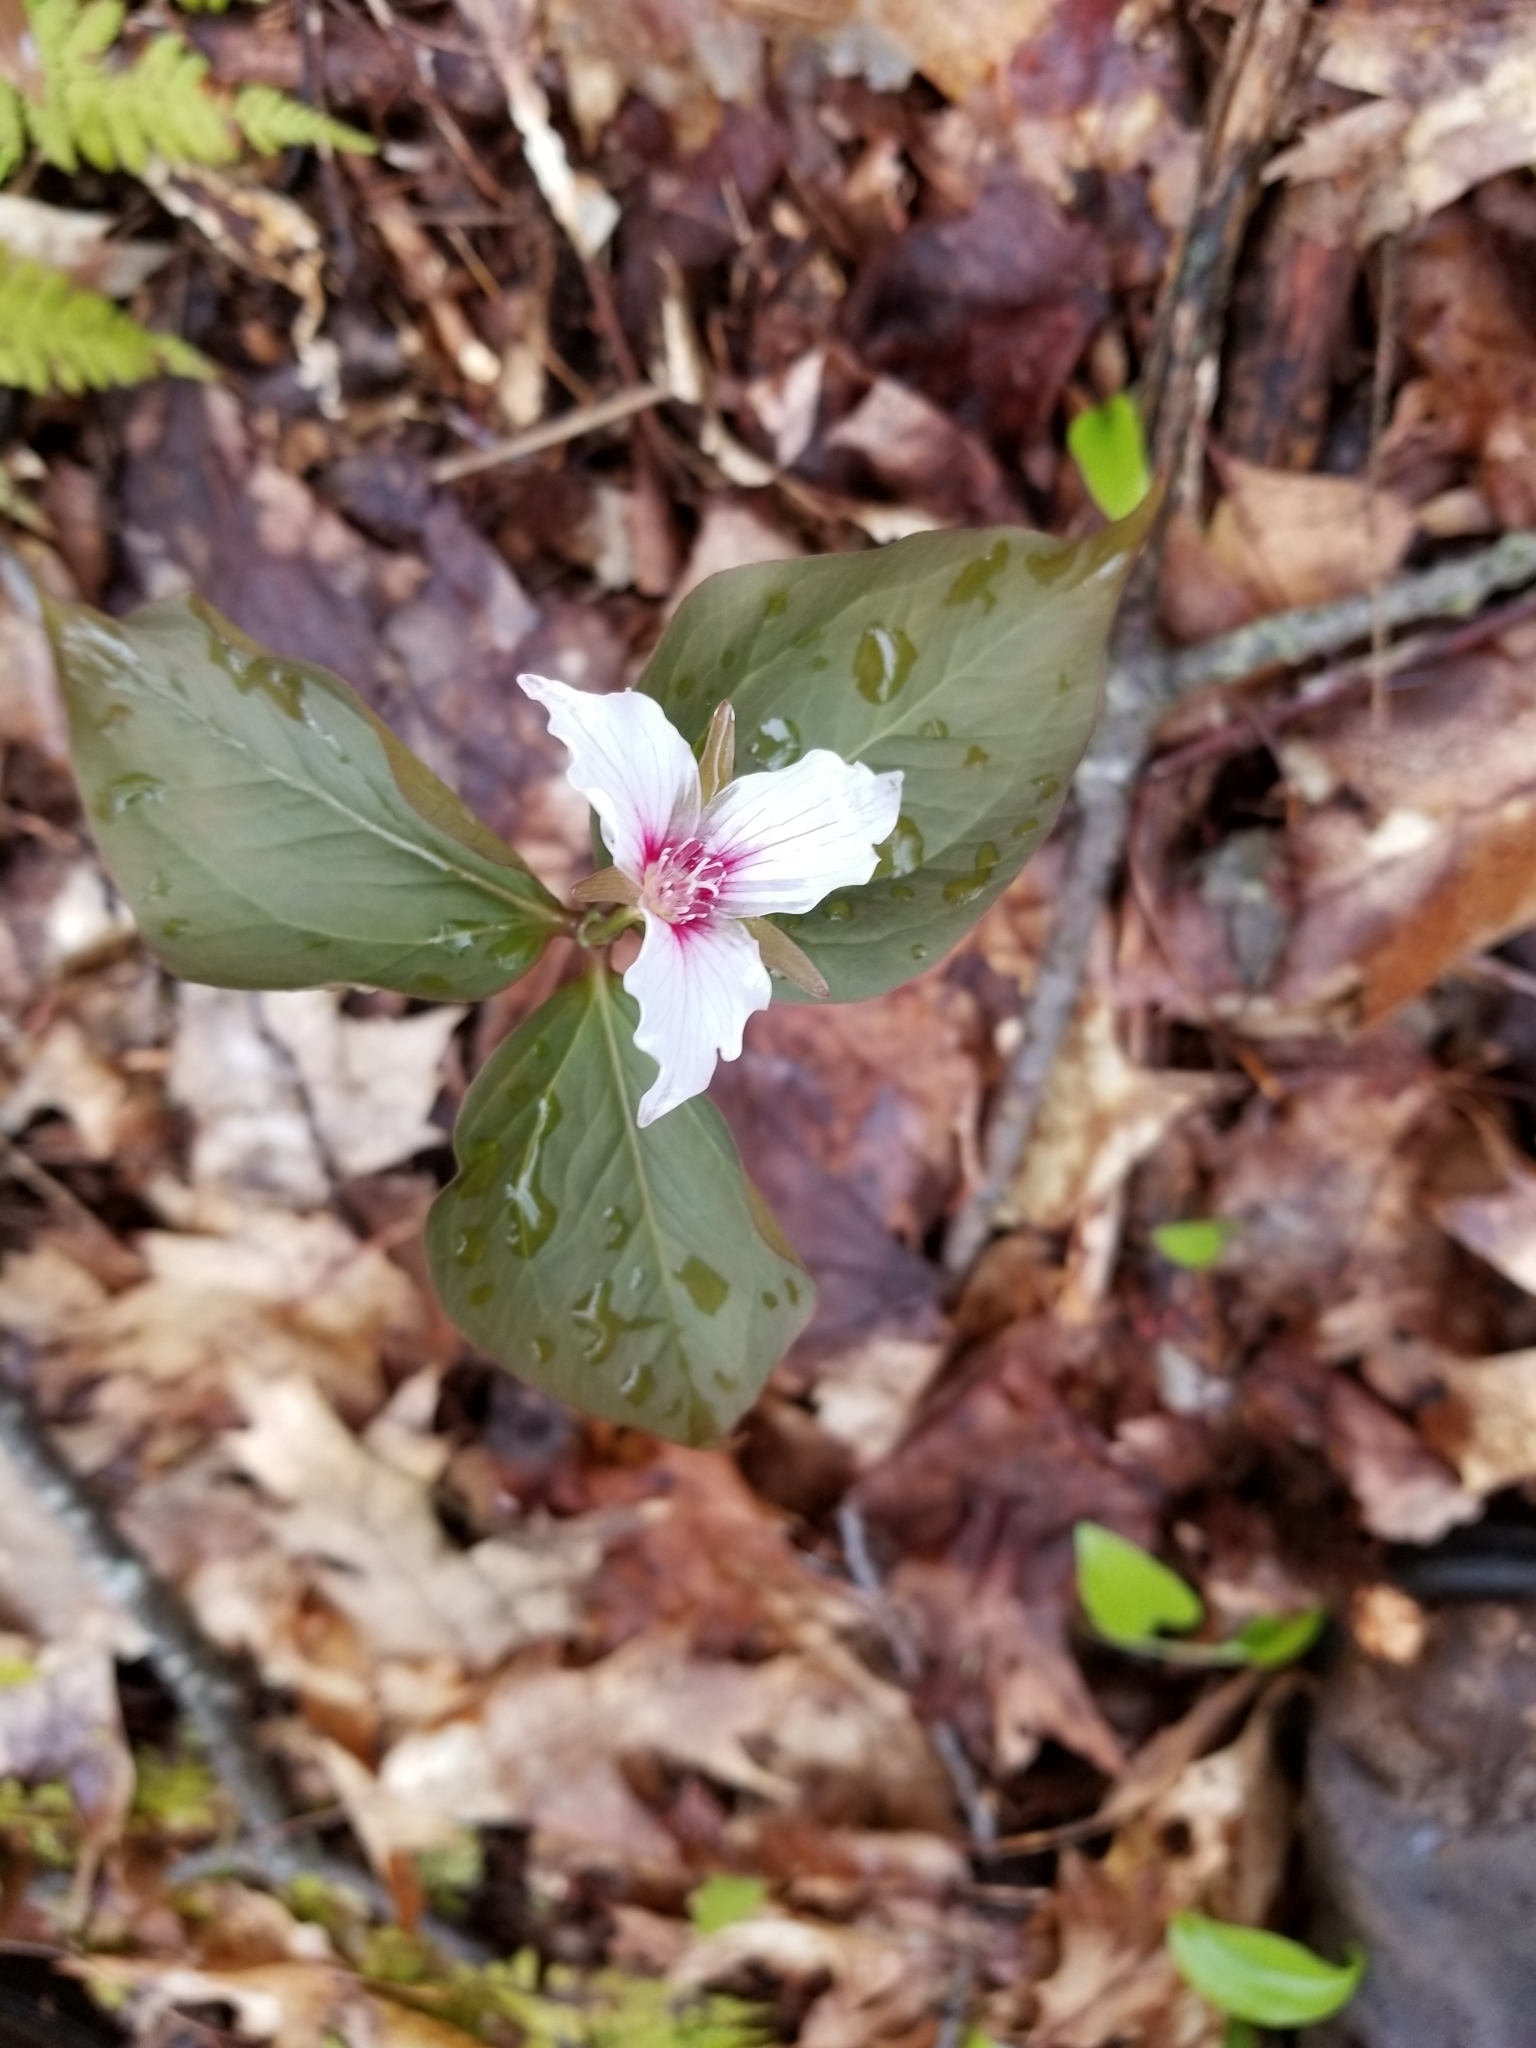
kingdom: Plantae
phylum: Tracheophyta
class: Liliopsida
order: Liliales
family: Melanthiaceae
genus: Trillium
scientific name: Trillium undulatum
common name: Paint trillium
